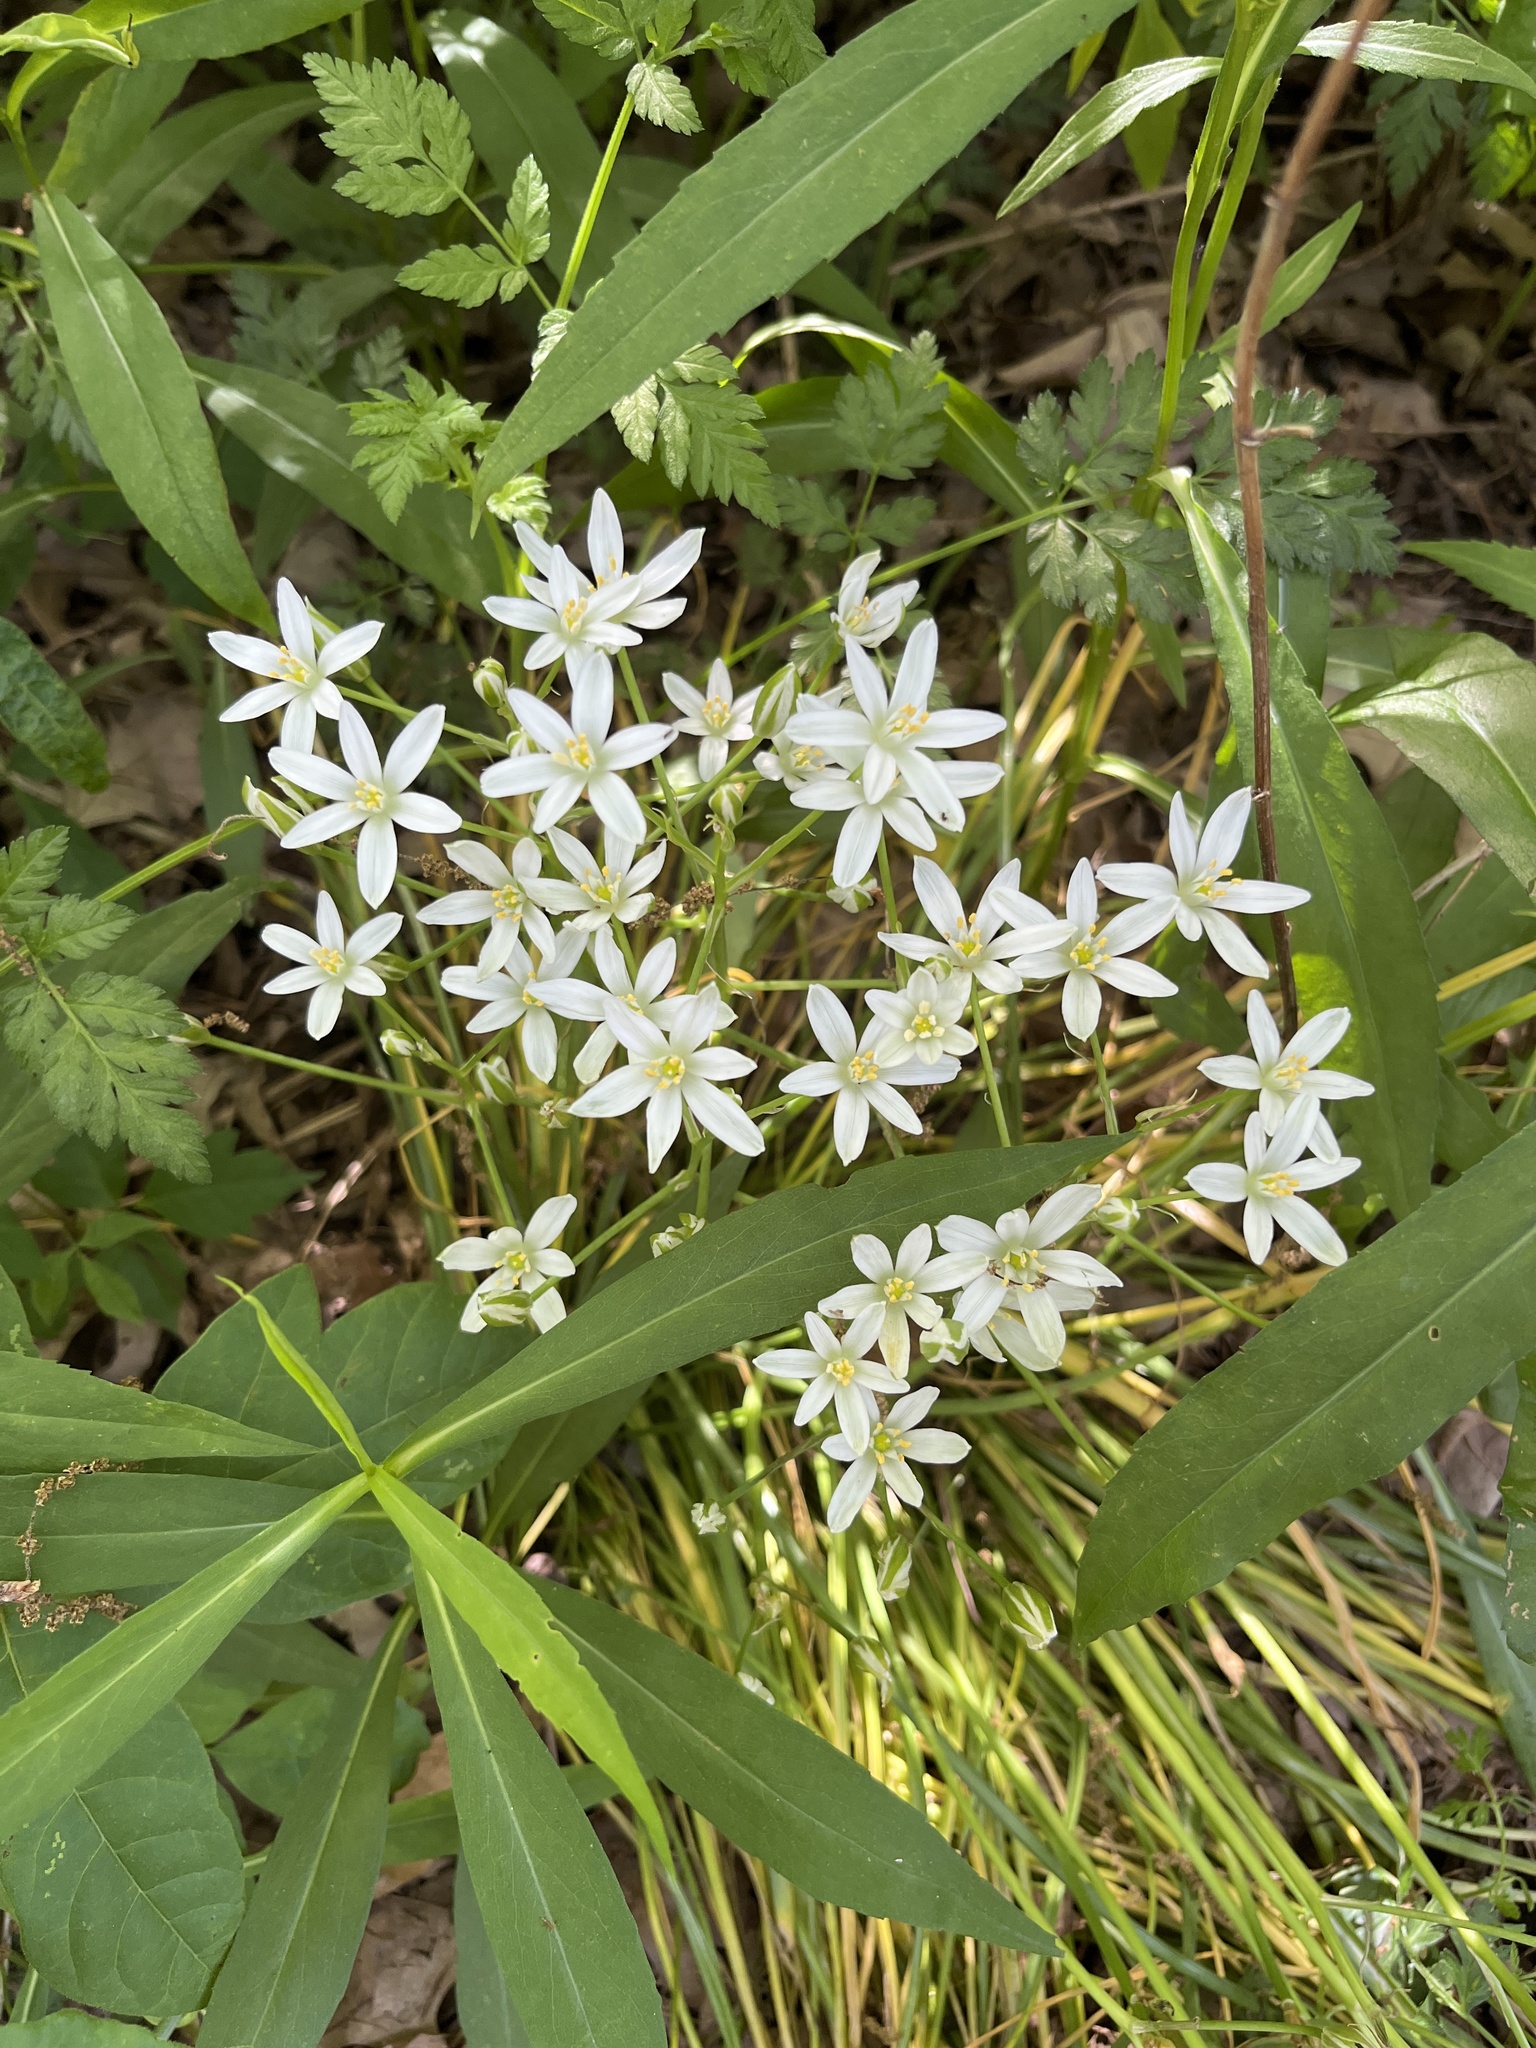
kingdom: Plantae
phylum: Tracheophyta
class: Liliopsida
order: Asparagales
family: Asparagaceae
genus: Ornithogalum
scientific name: Ornithogalum umbellatum
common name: Garden star-of-bethlehem
